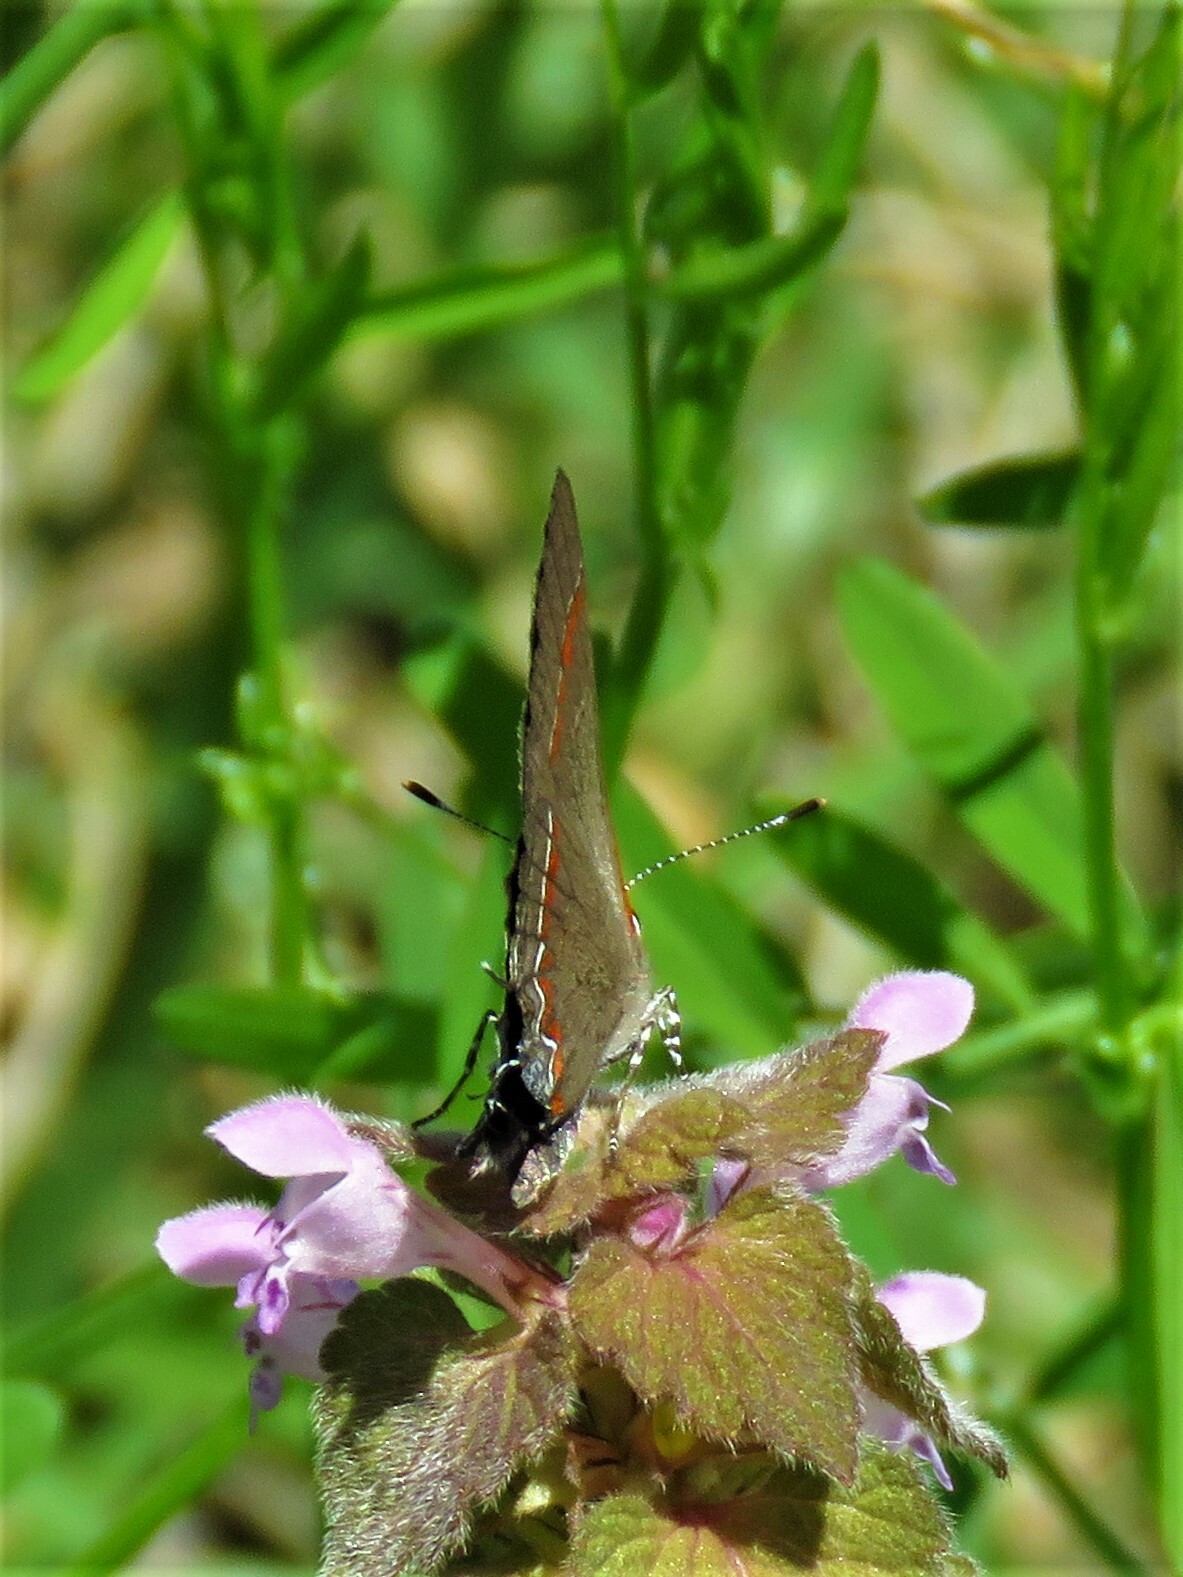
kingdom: Animalia
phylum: Arthropoda
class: Insecta
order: Lepidoptera
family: Lycaenidae
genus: Calycopis
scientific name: Calycopis cecrops
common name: Red-banded hairstreak
